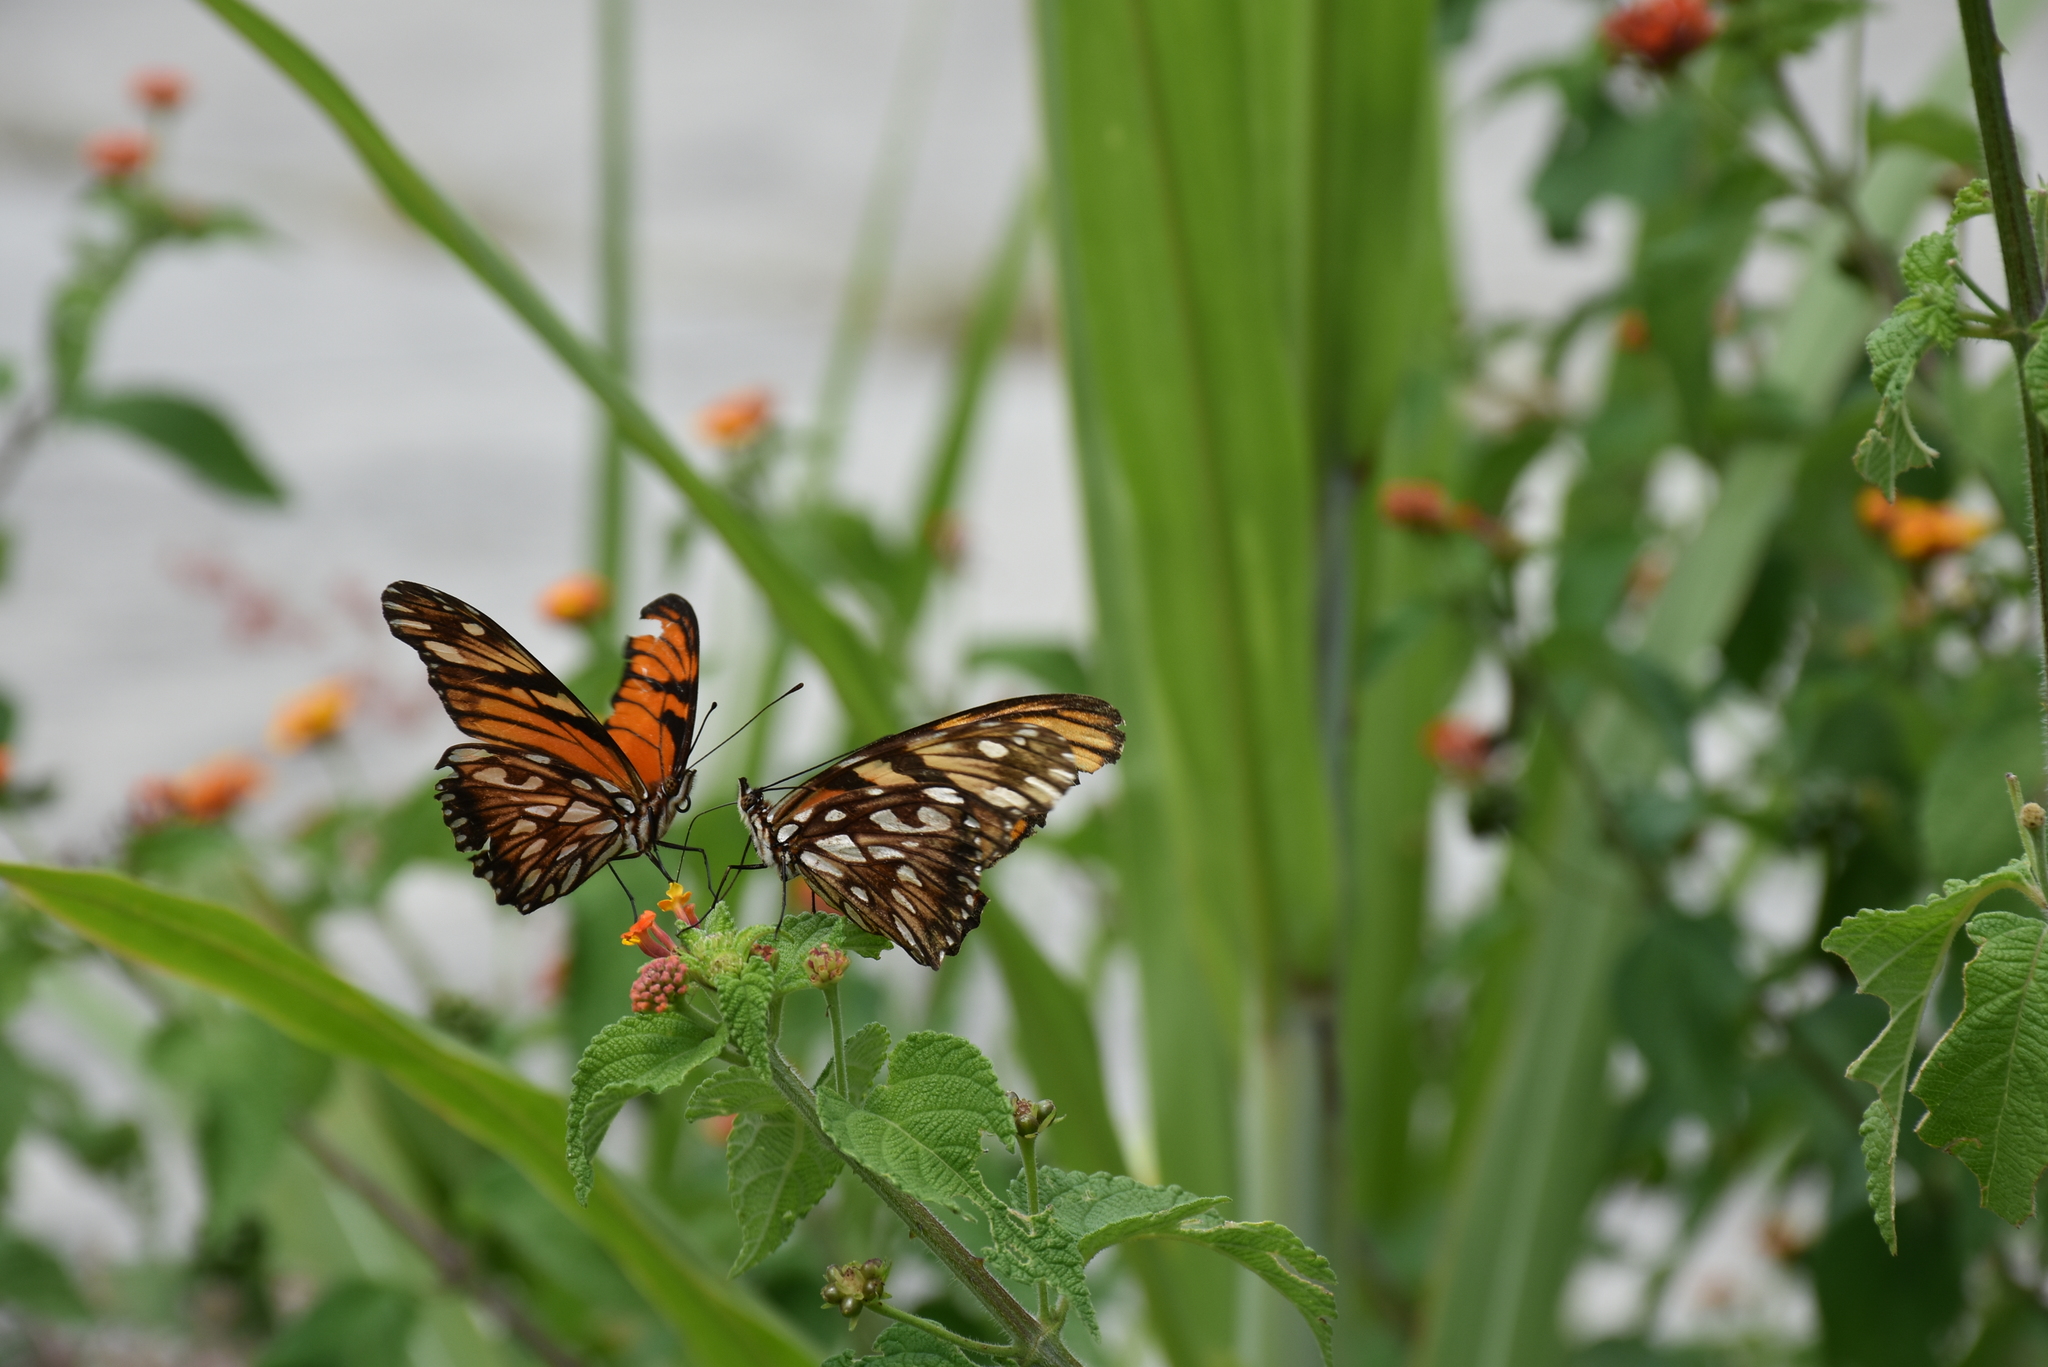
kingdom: Animalia
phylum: Arthropoda
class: Insecta
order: Lepidoptera
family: Nymphalidae
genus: Dione
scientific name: Dione juno
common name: Juno silverspot
